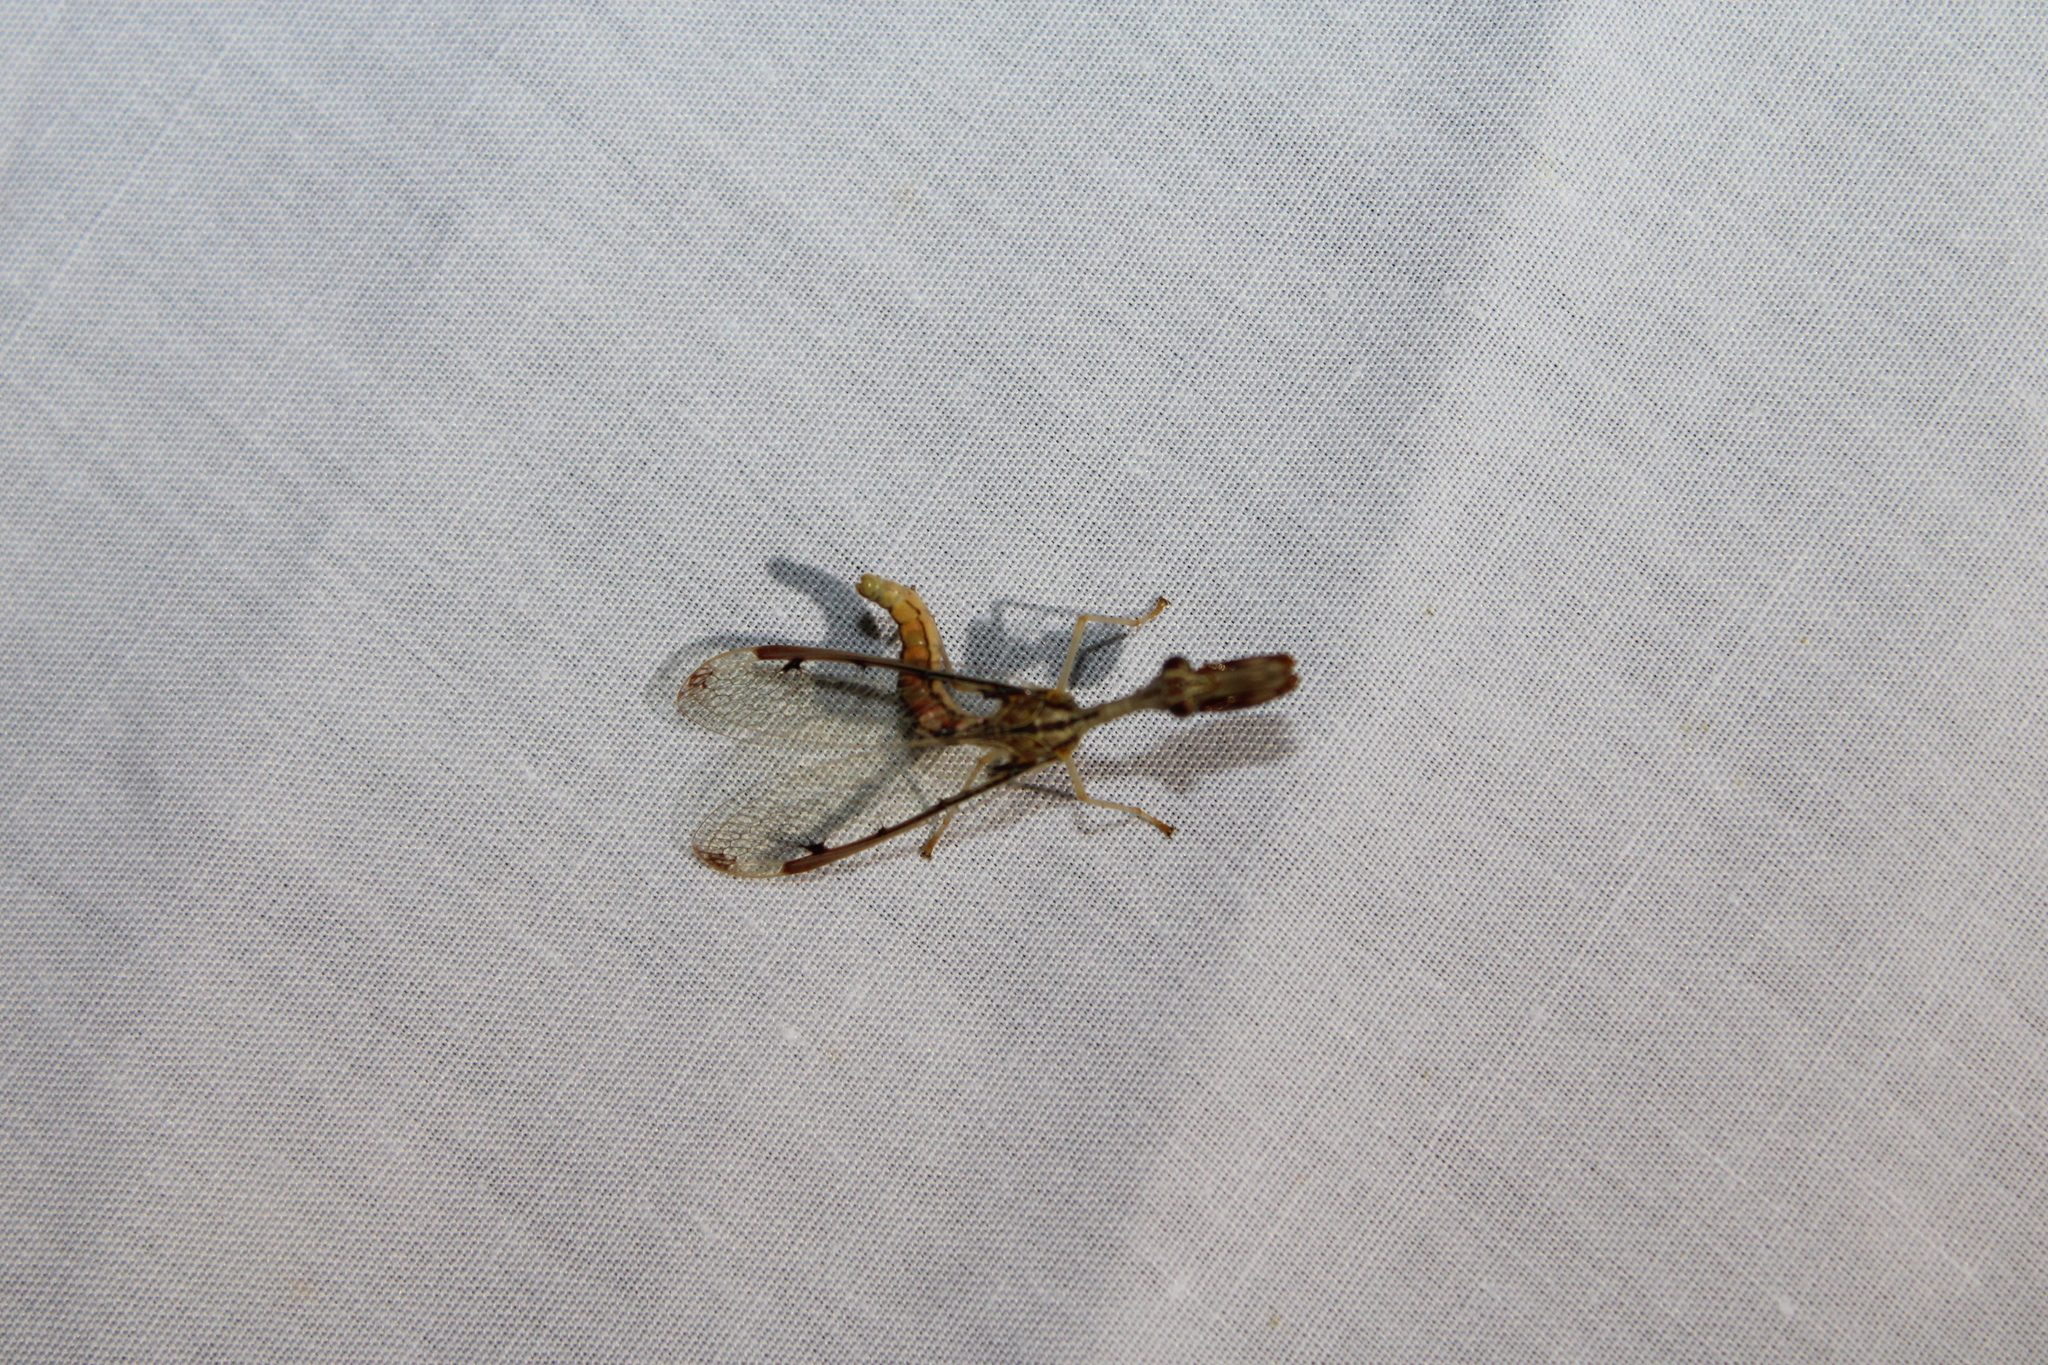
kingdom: Animalia
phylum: Arthropoda
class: Insecta
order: Neuroptera
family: Mantispidae
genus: Dicromantispa
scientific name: Dicromantispa interrupta
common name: Four-spotted mantidfly
